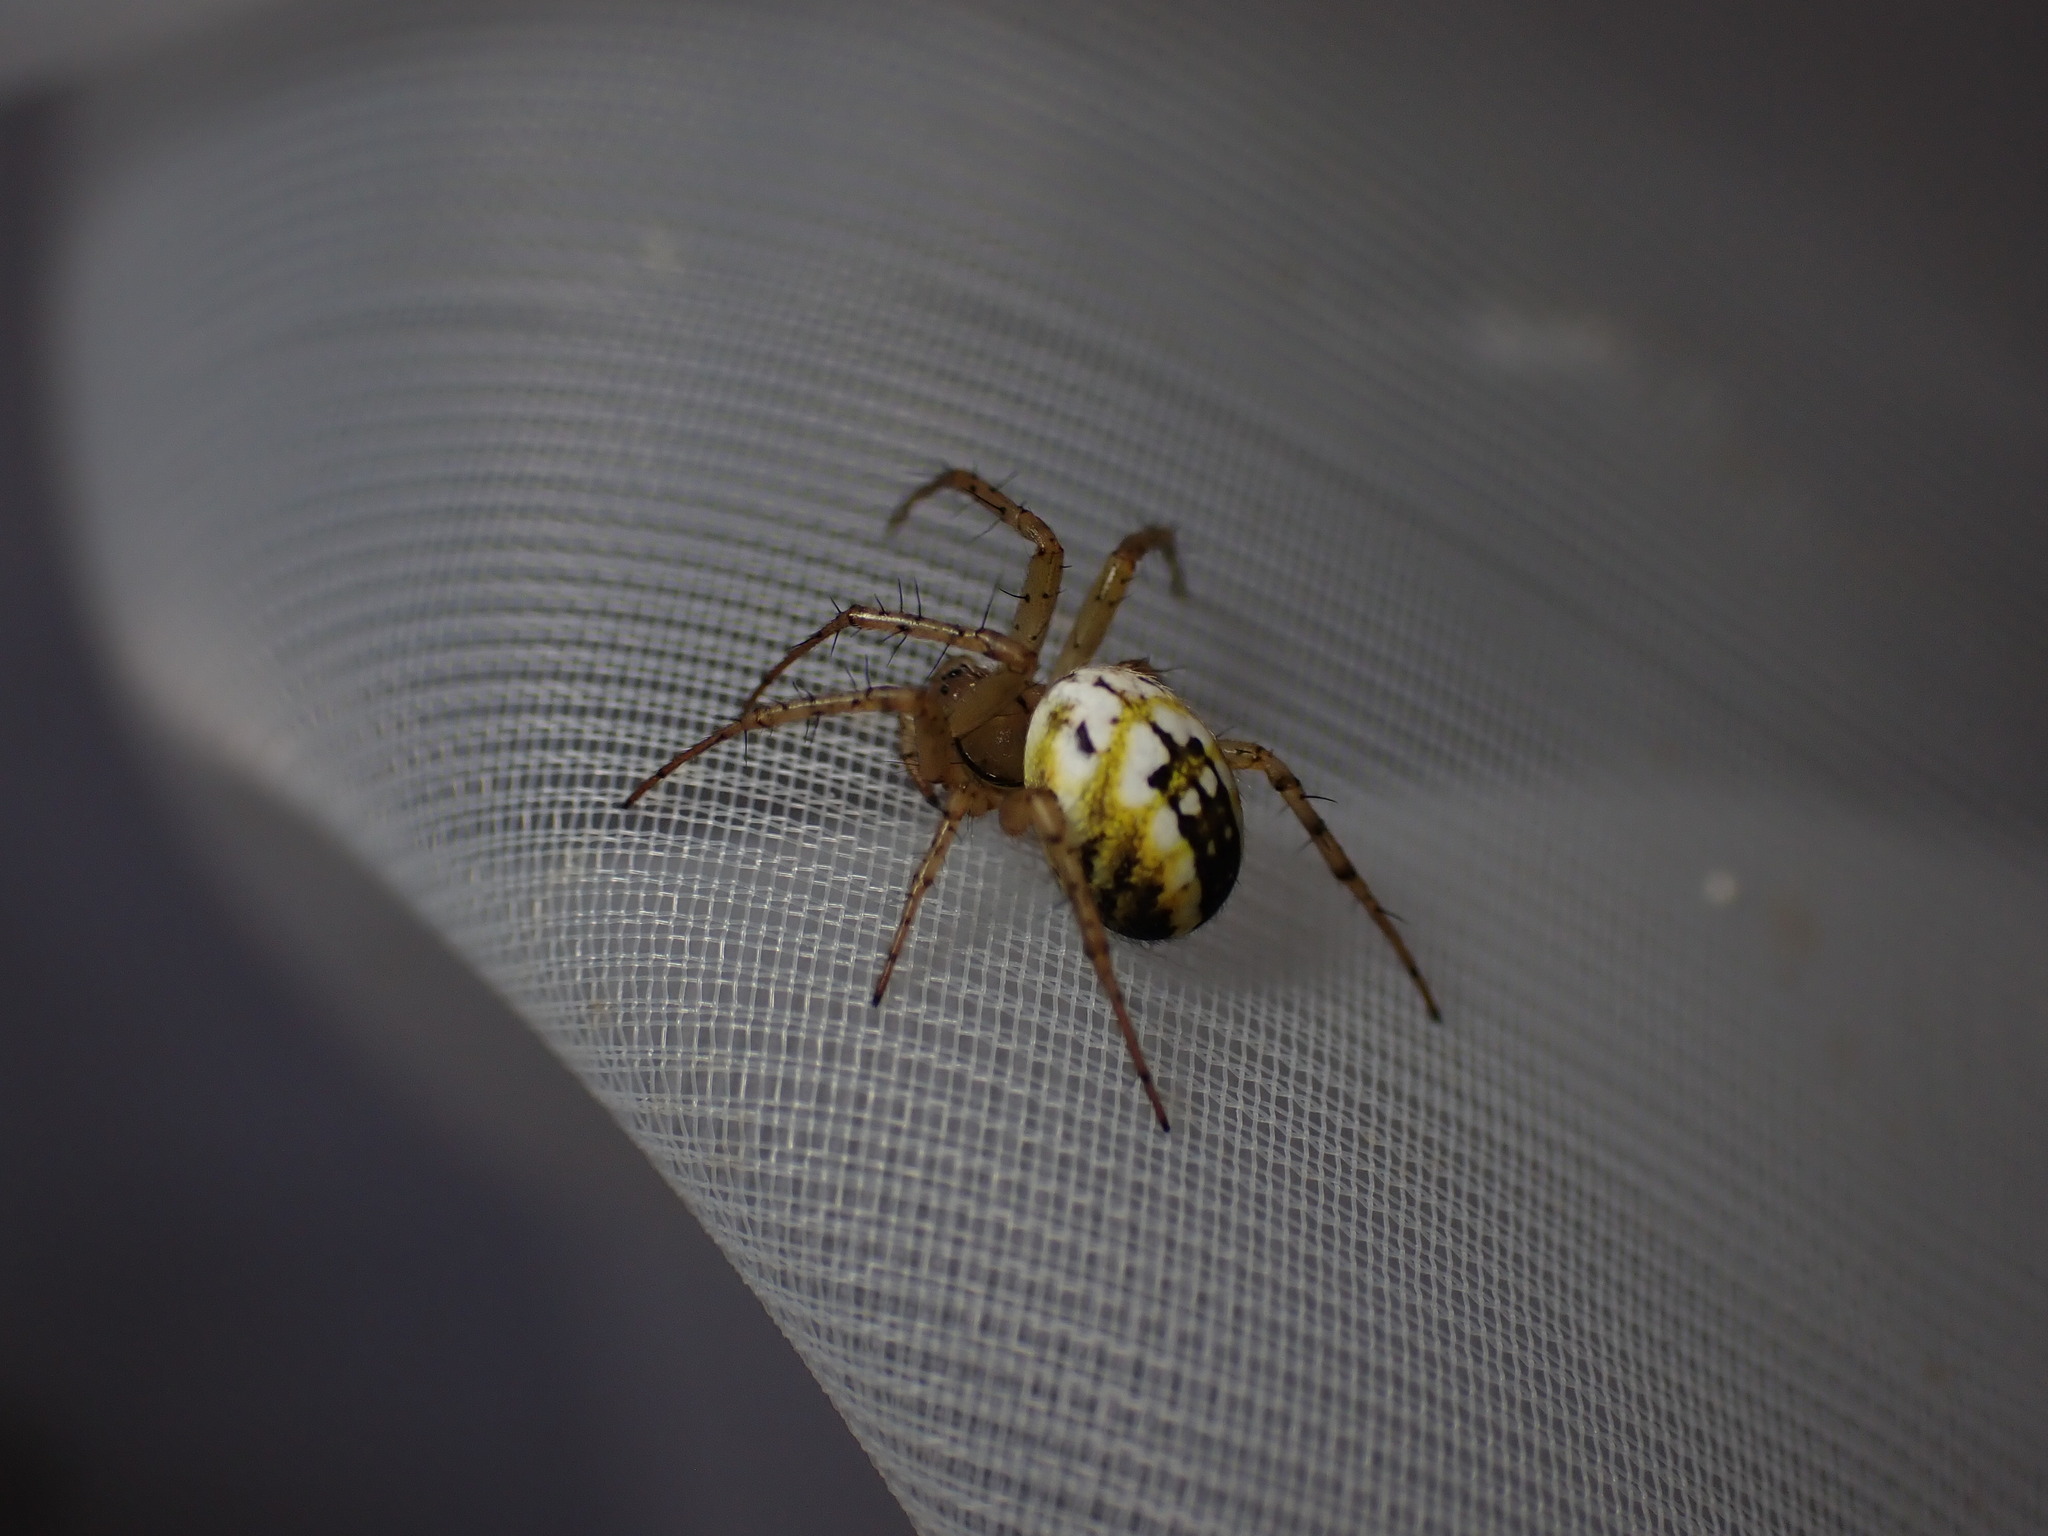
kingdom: Animalia
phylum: Arthropoda
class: Arachnida
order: Araneae
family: Araneidae
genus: Mangora
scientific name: Mangora acalypha
